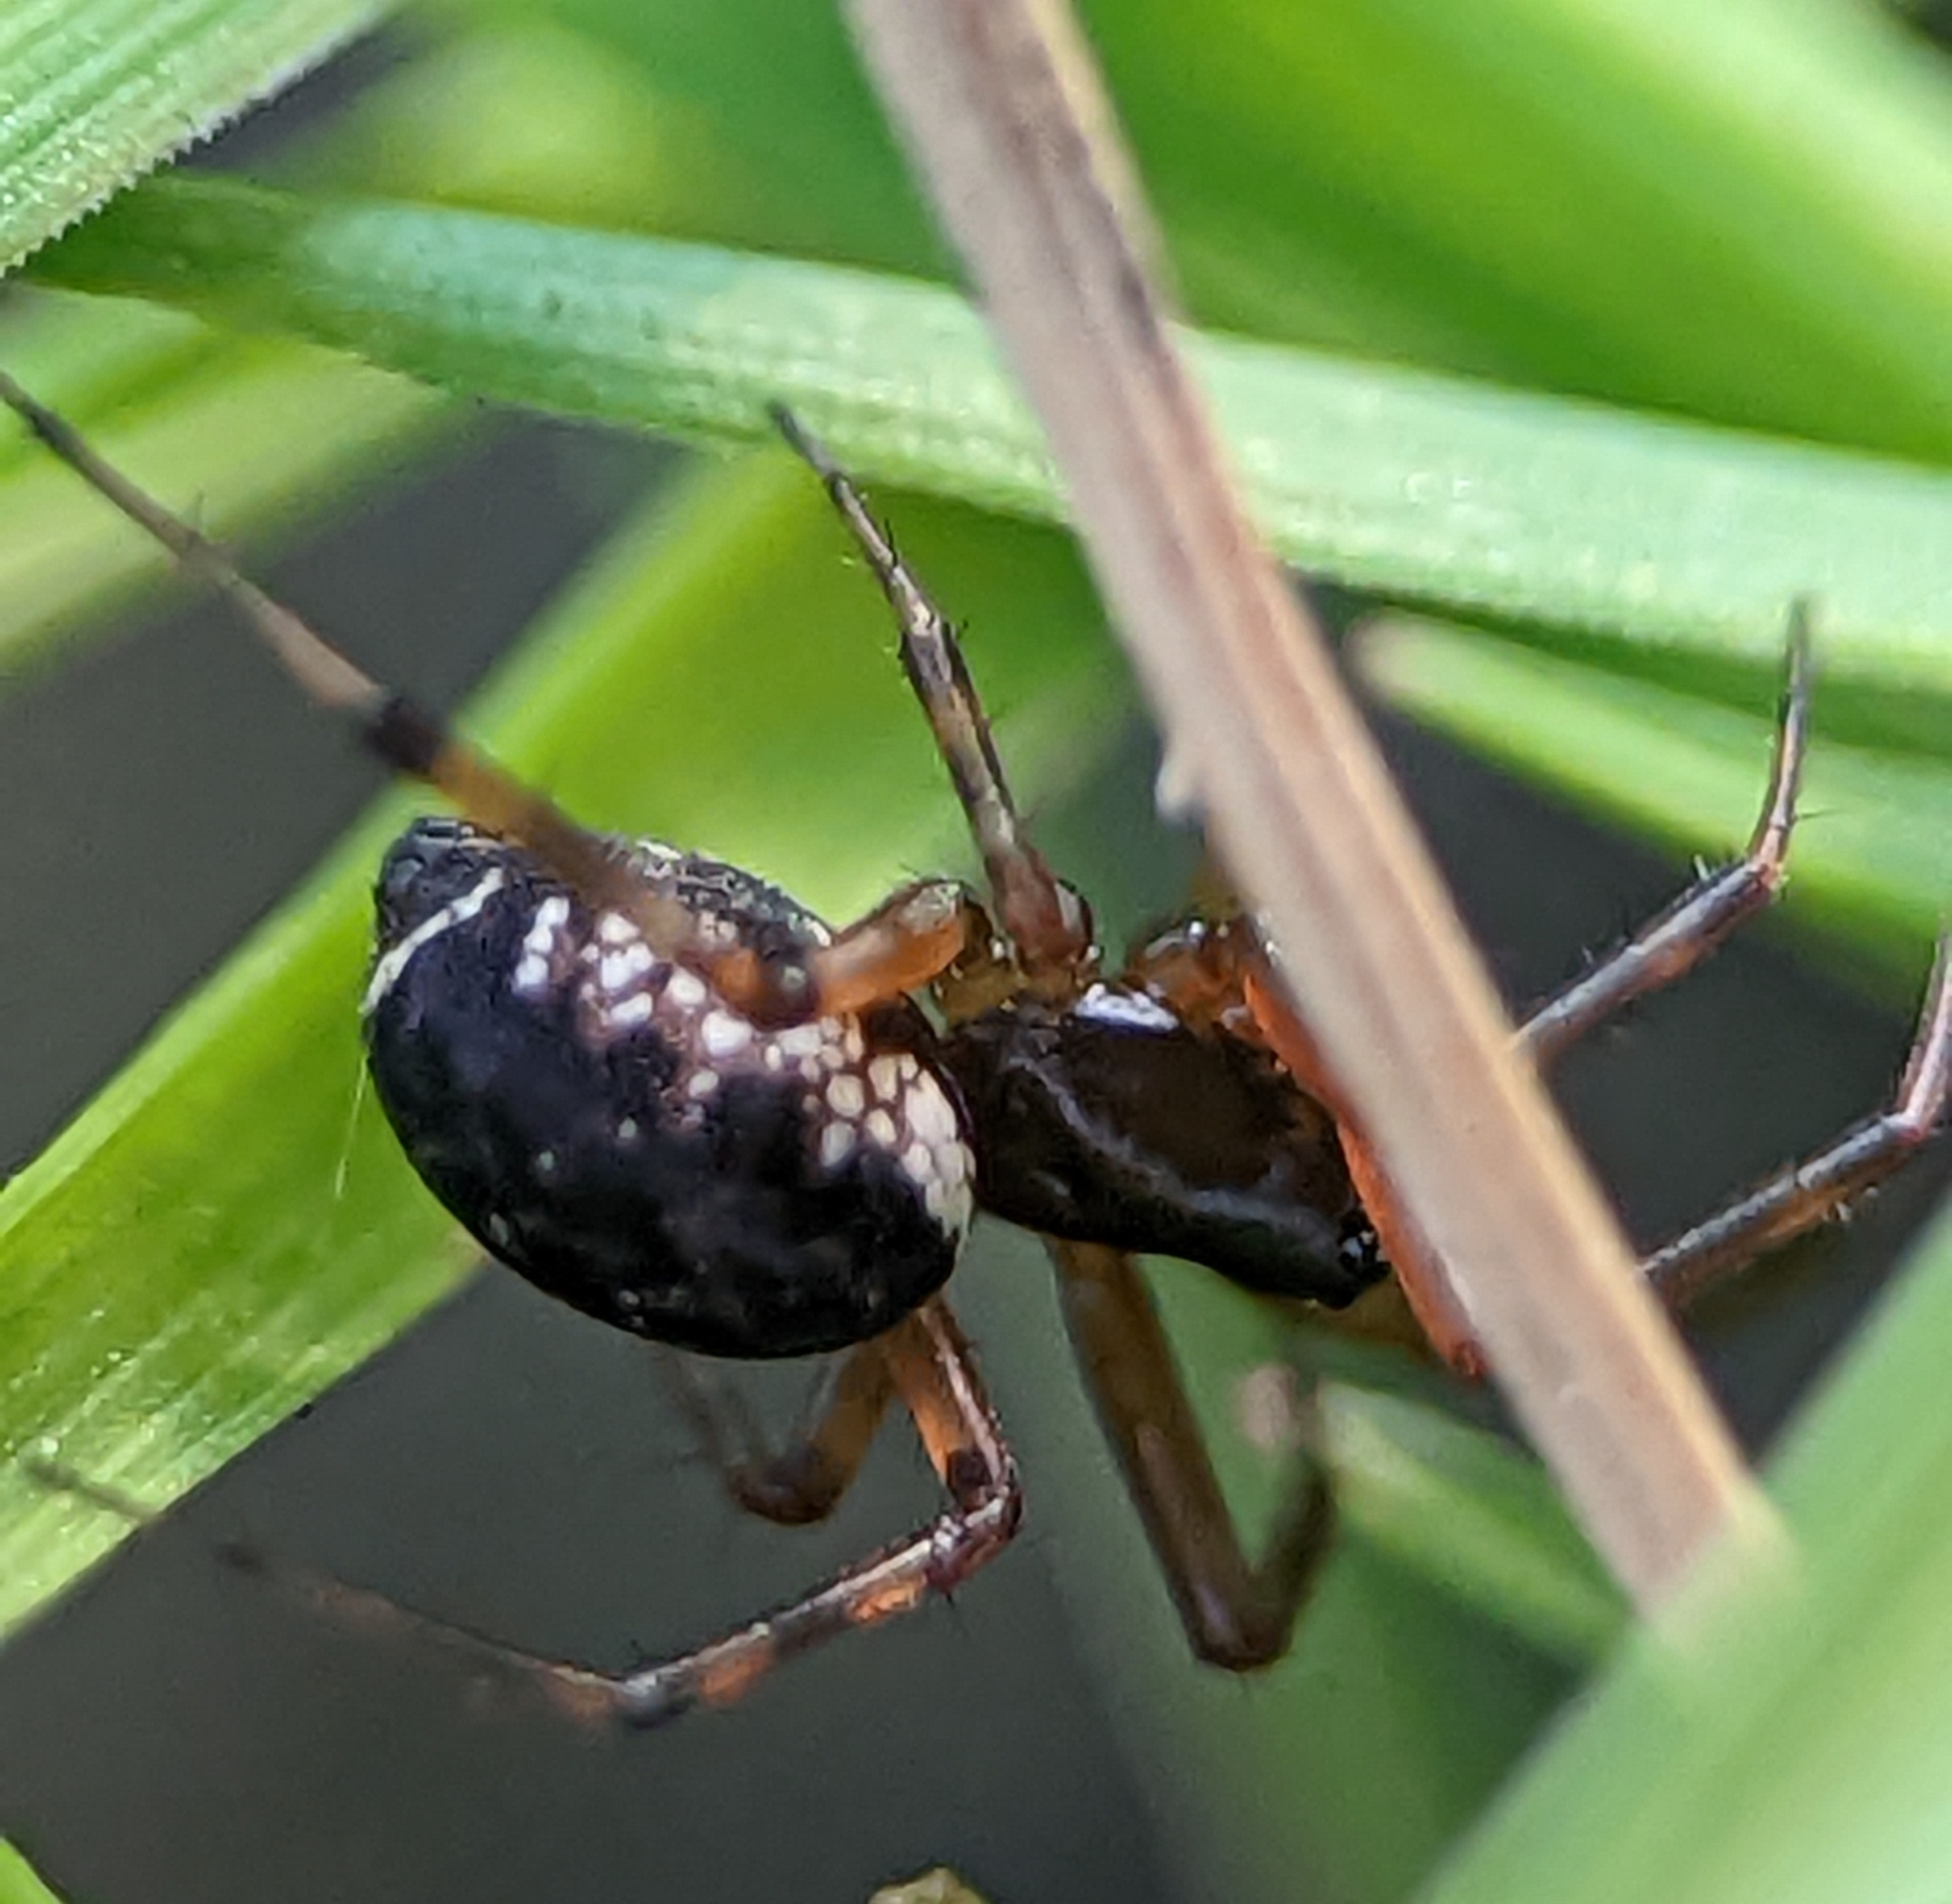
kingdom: Animalia
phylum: Arthropoda
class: Arachnida
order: Araneae
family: Linyphiidae
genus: Neriene
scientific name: Neriene clathrata
